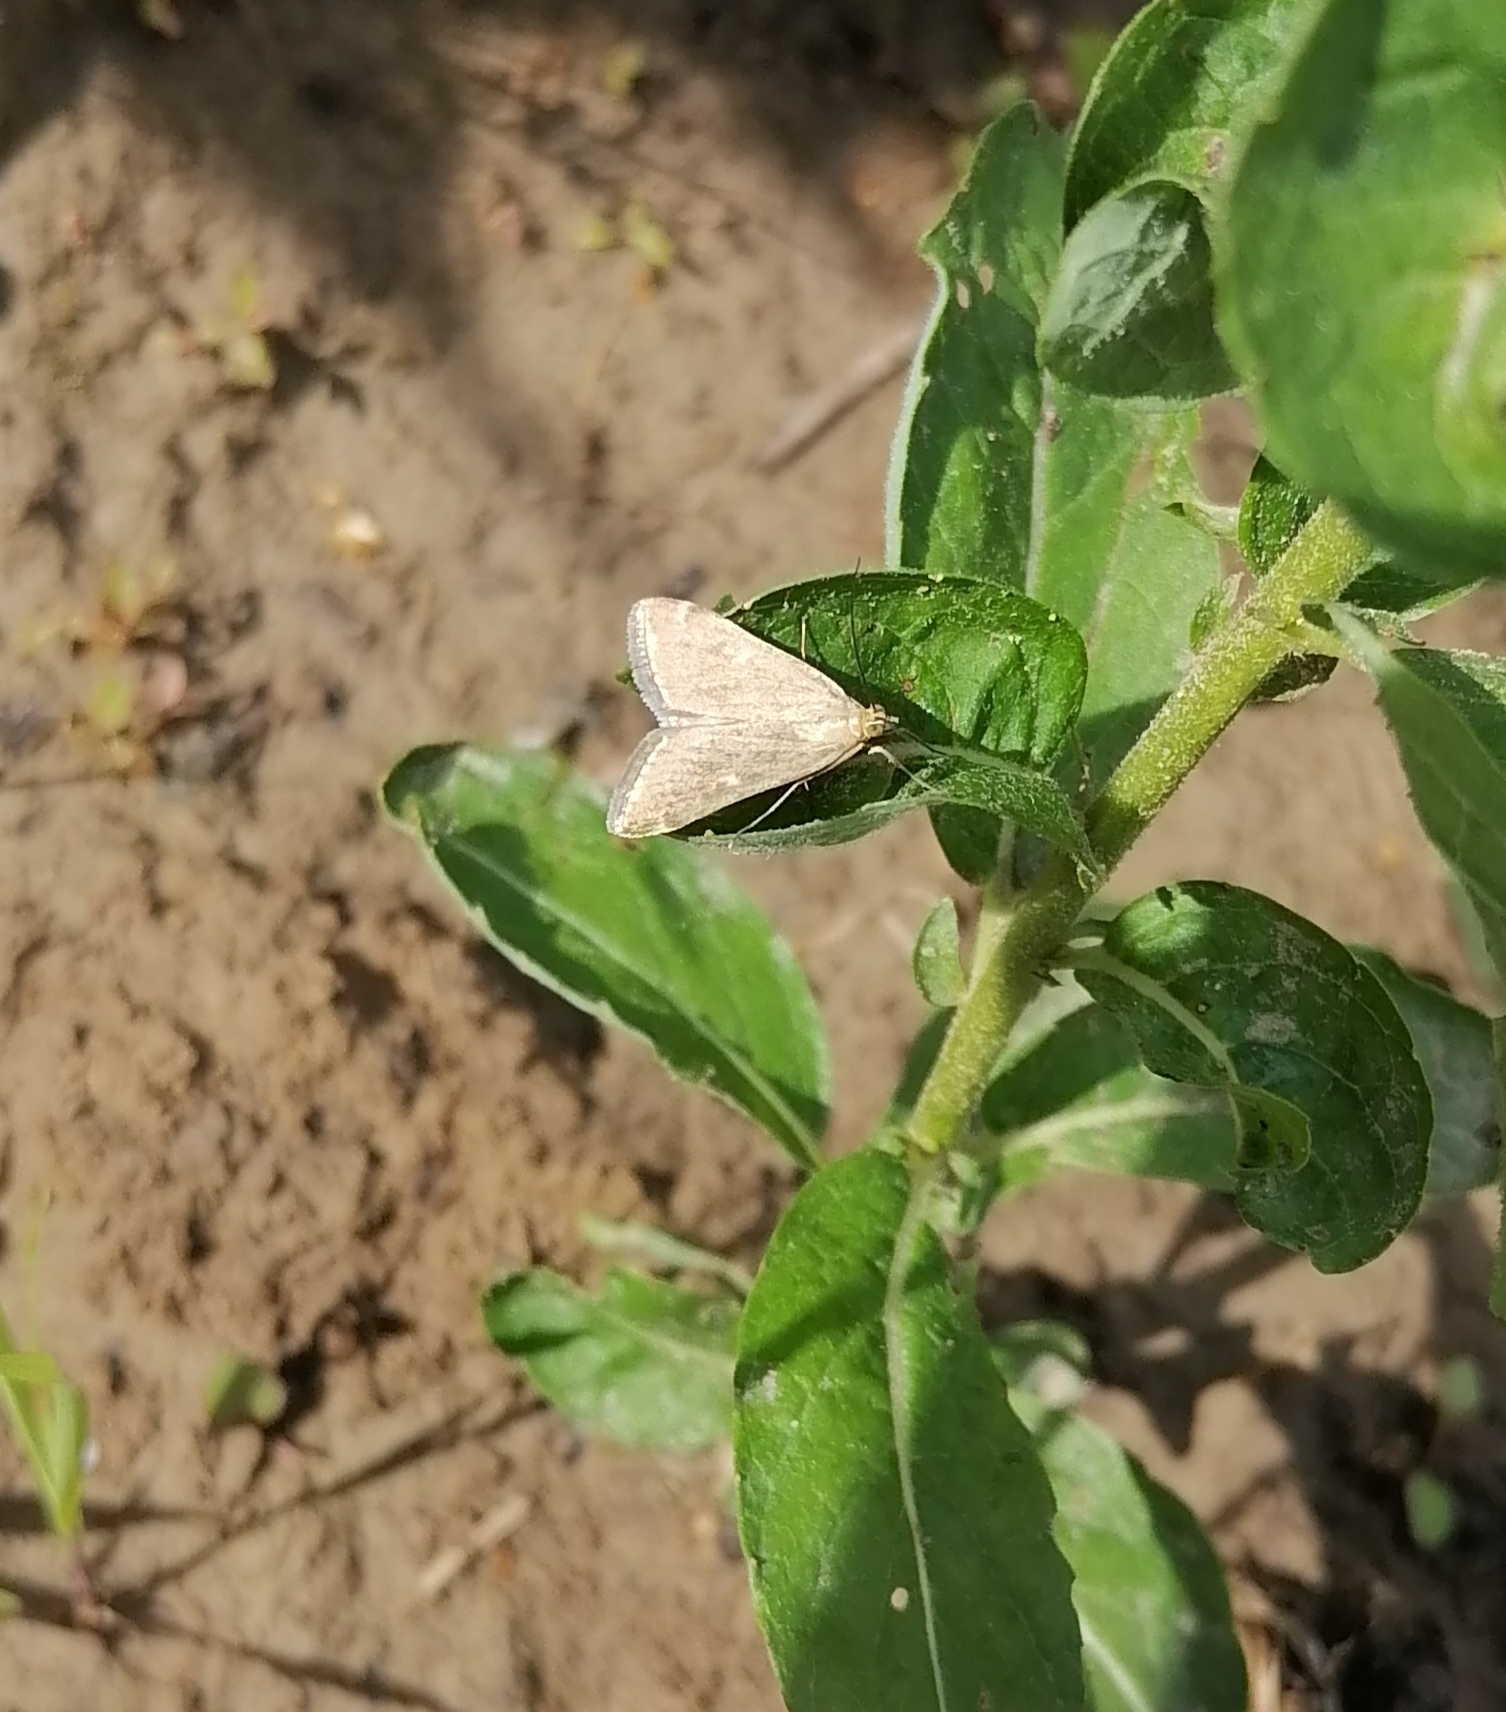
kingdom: Animalia
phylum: Arthropoda
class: Insecta
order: Lepidoptera
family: Crambidae
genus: Loxostege
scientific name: Loxostege sticticalis
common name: Crambid moth
